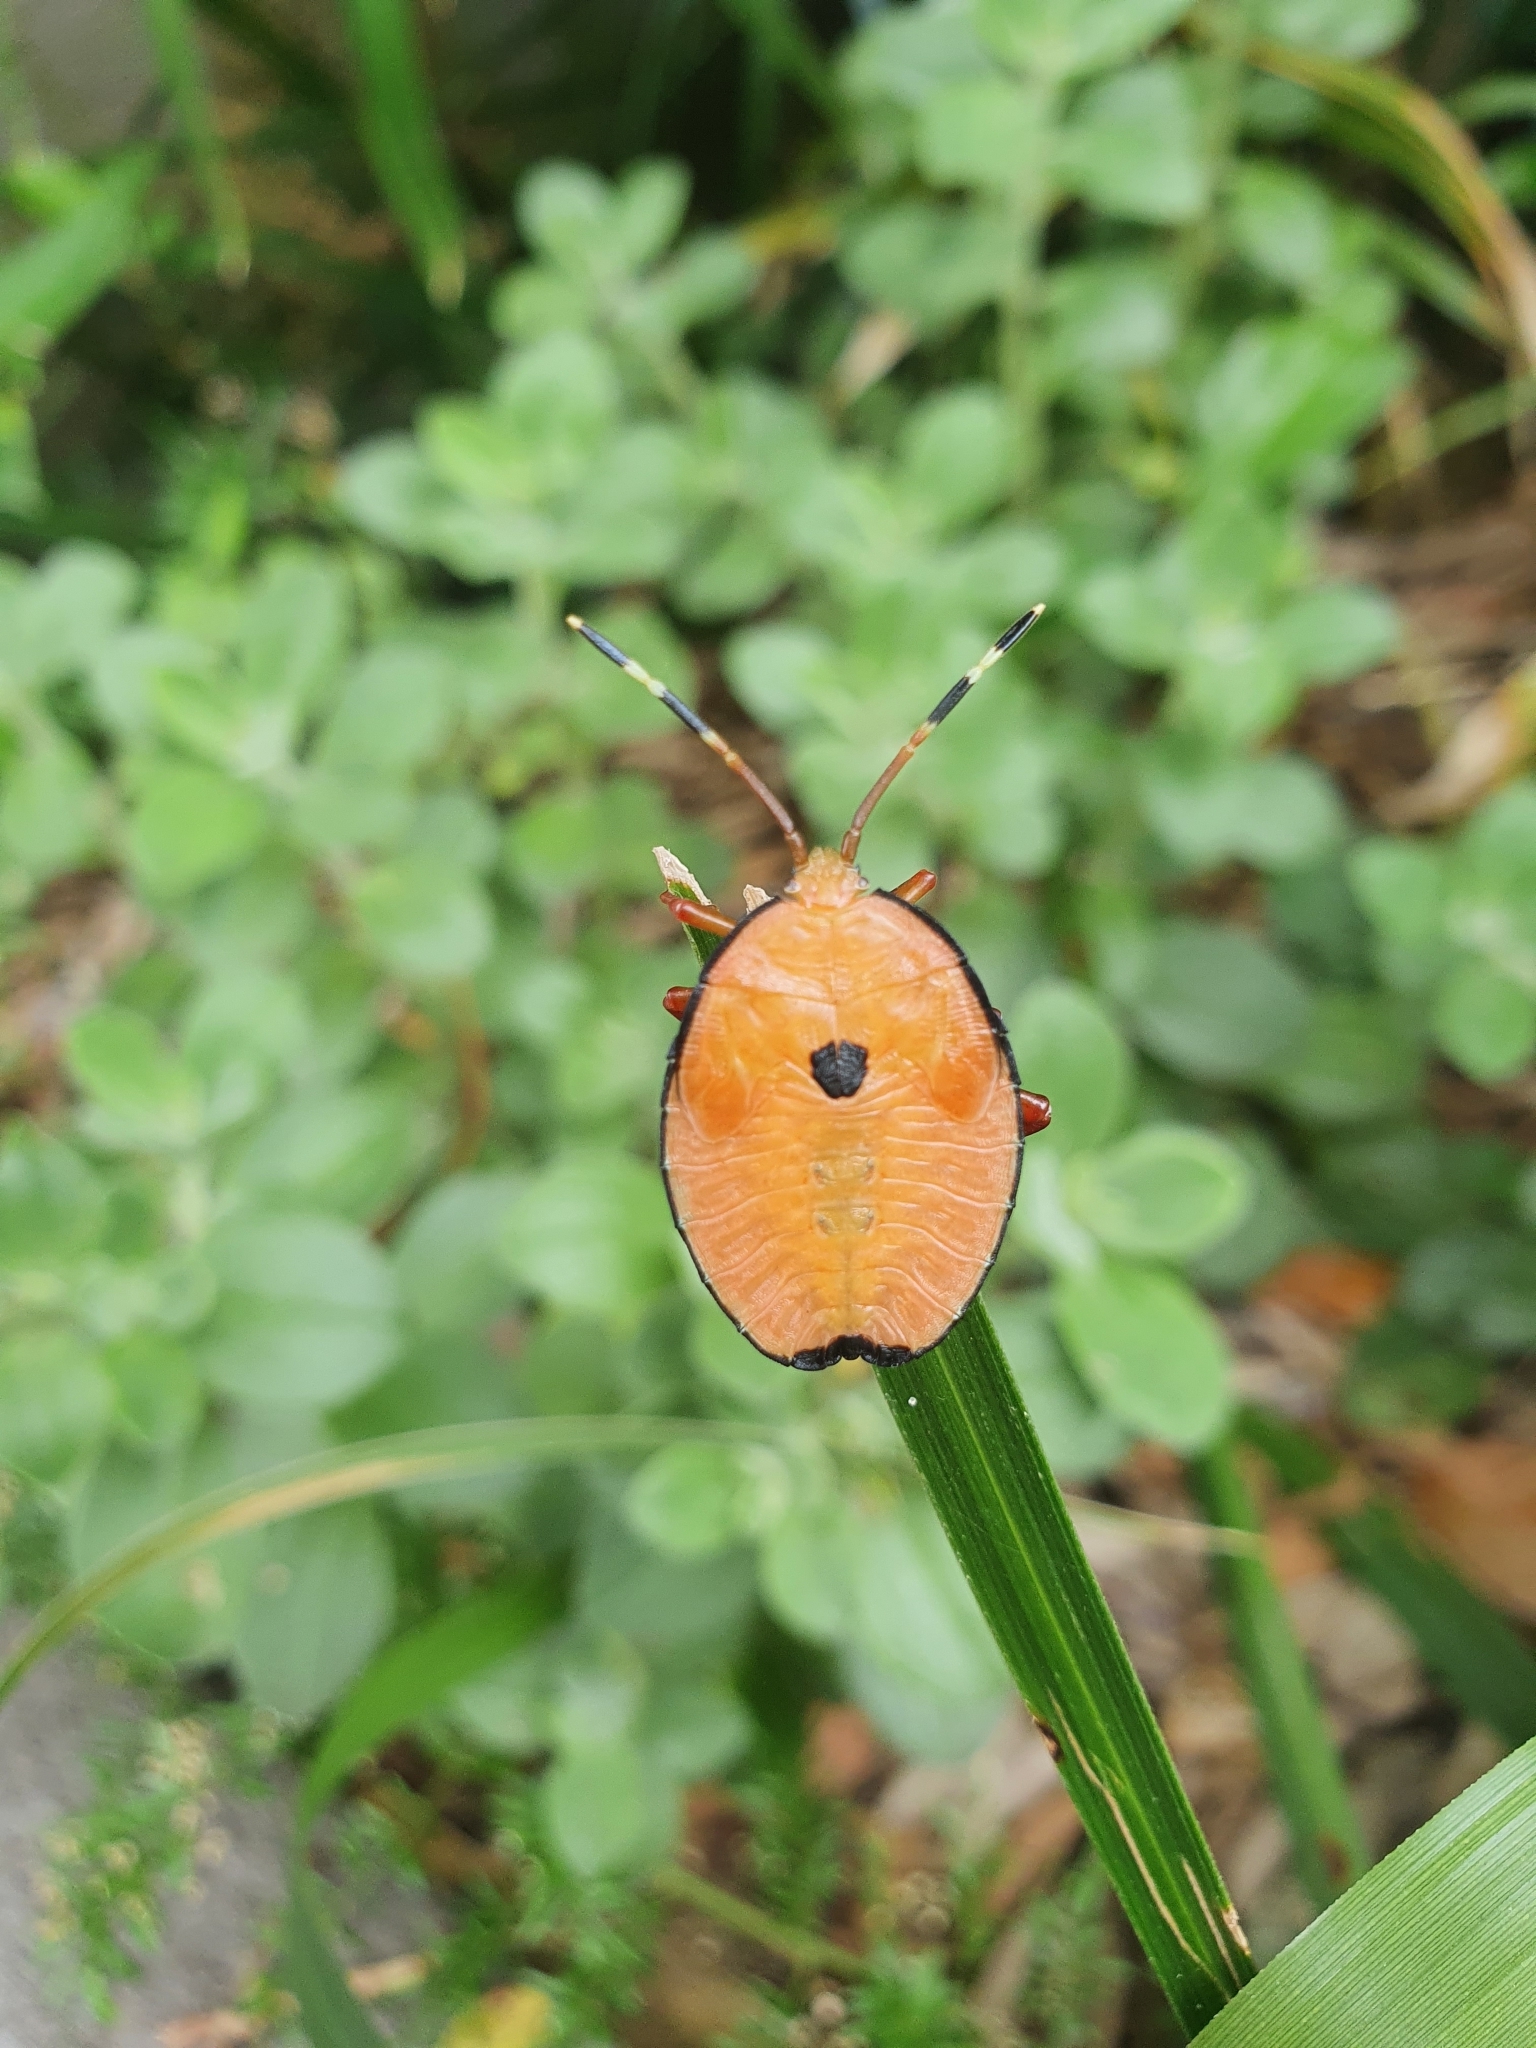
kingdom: Animalia
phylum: Arthropoda
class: Insecta
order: Hemiptera
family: Tessaratomidae
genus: Musgraveia
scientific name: Musgraveia sulciventris
